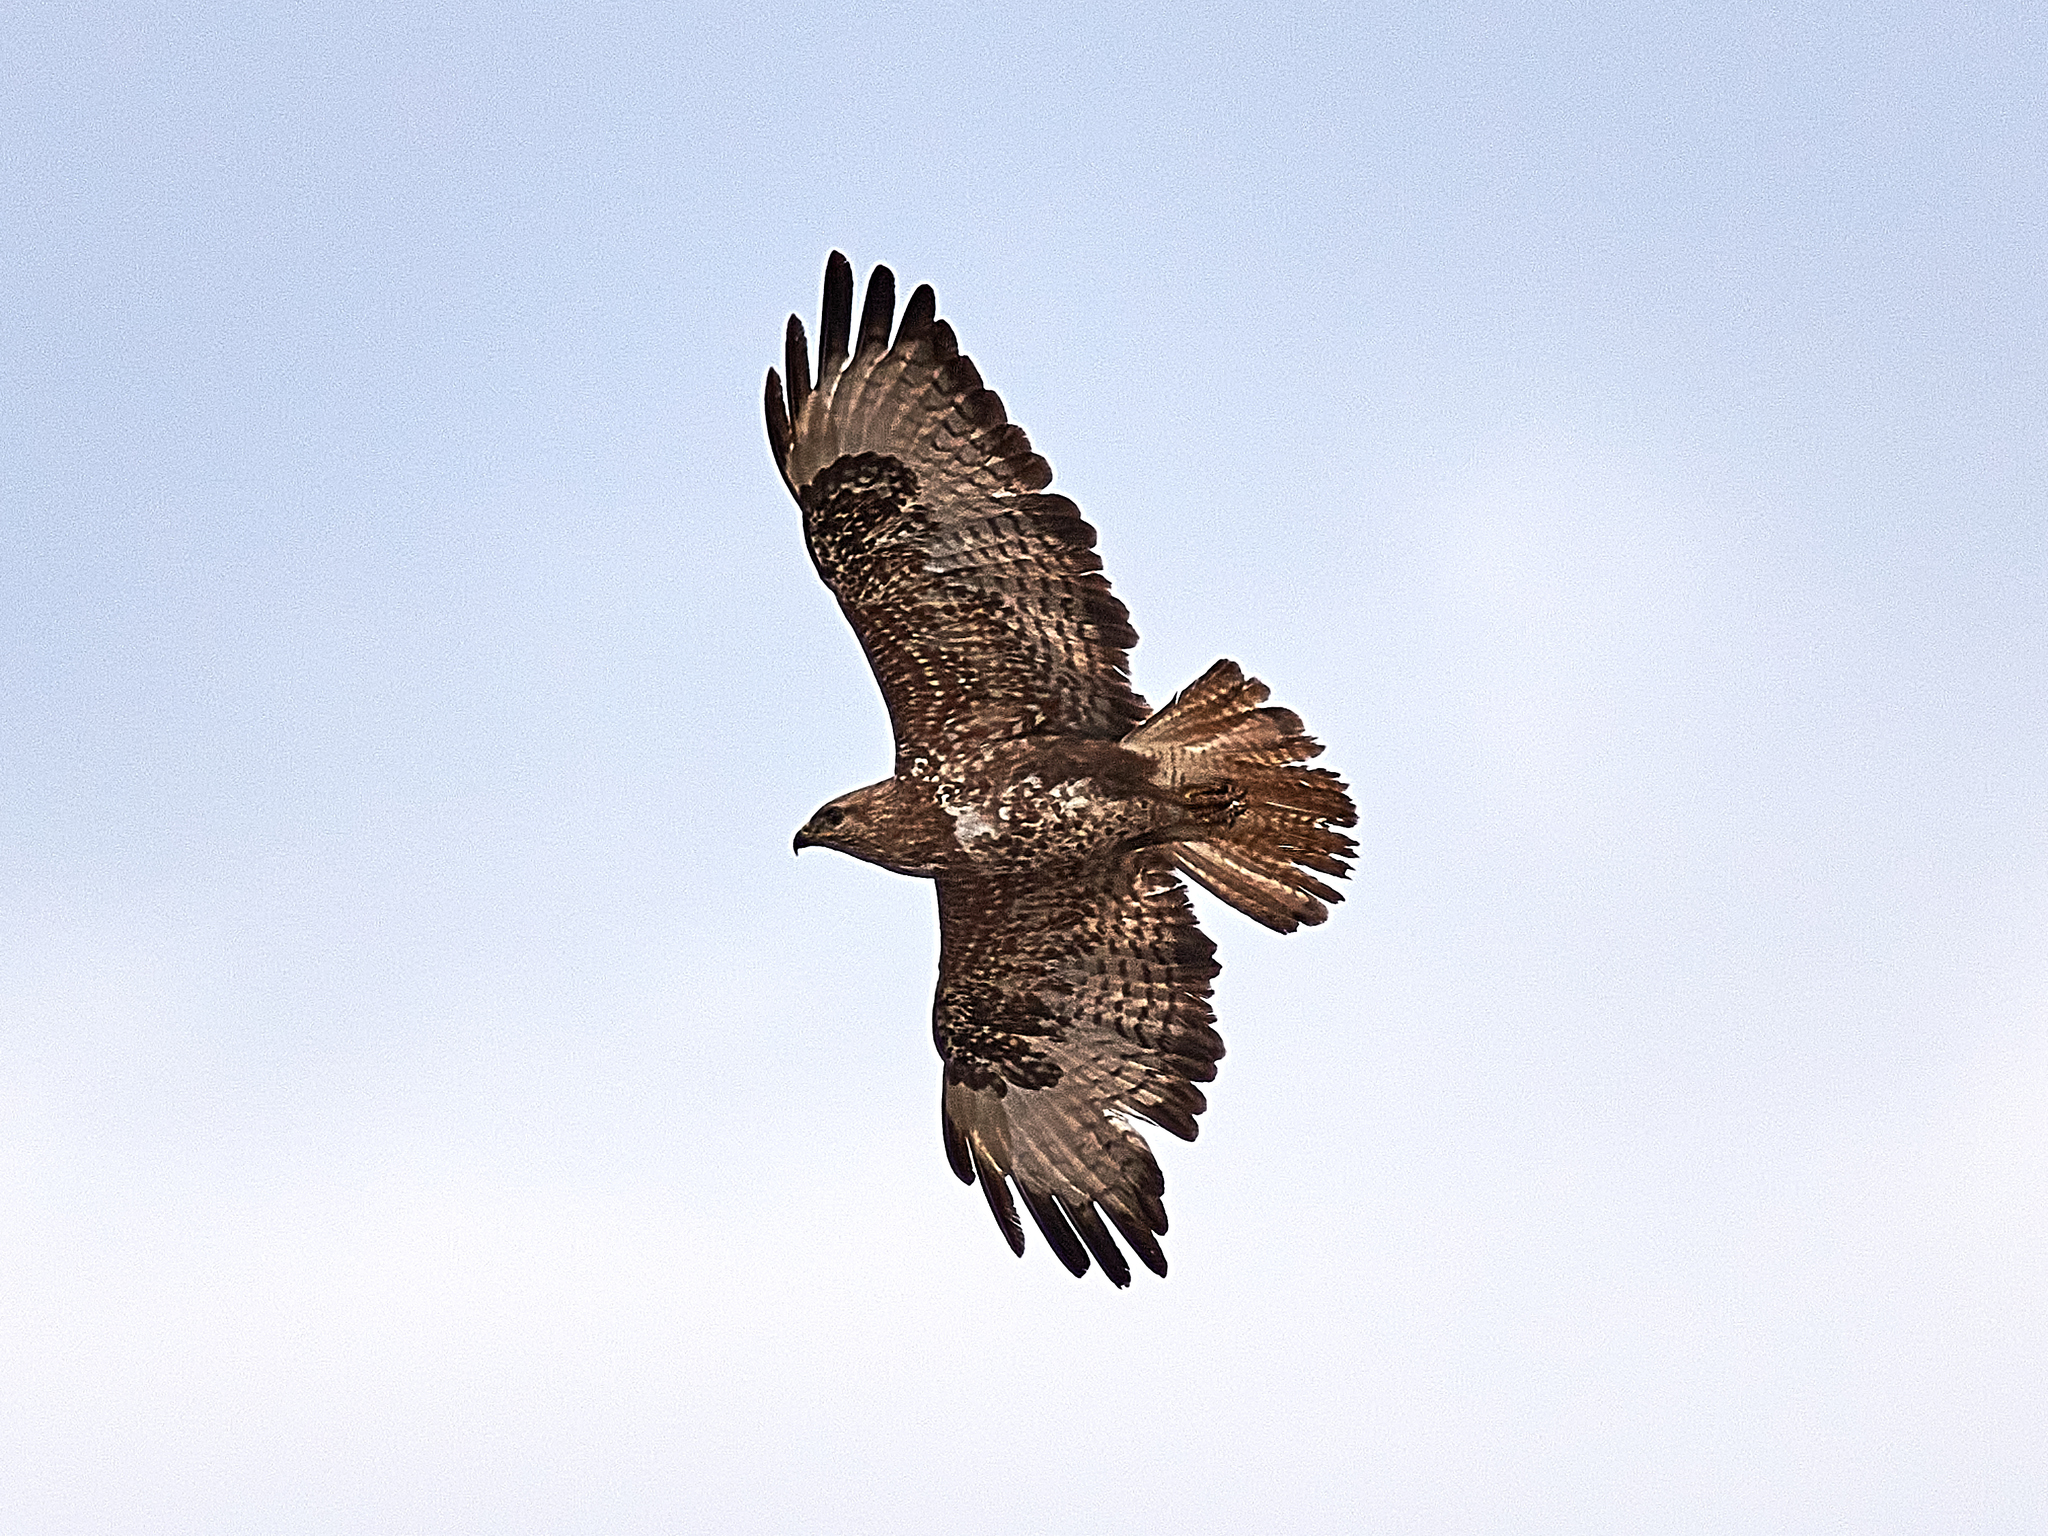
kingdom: Animalia
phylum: Chordata
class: Aves
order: Accipitriformes
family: Accipitridae
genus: Buteo
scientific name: Buteo buteo
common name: Common buzzard
